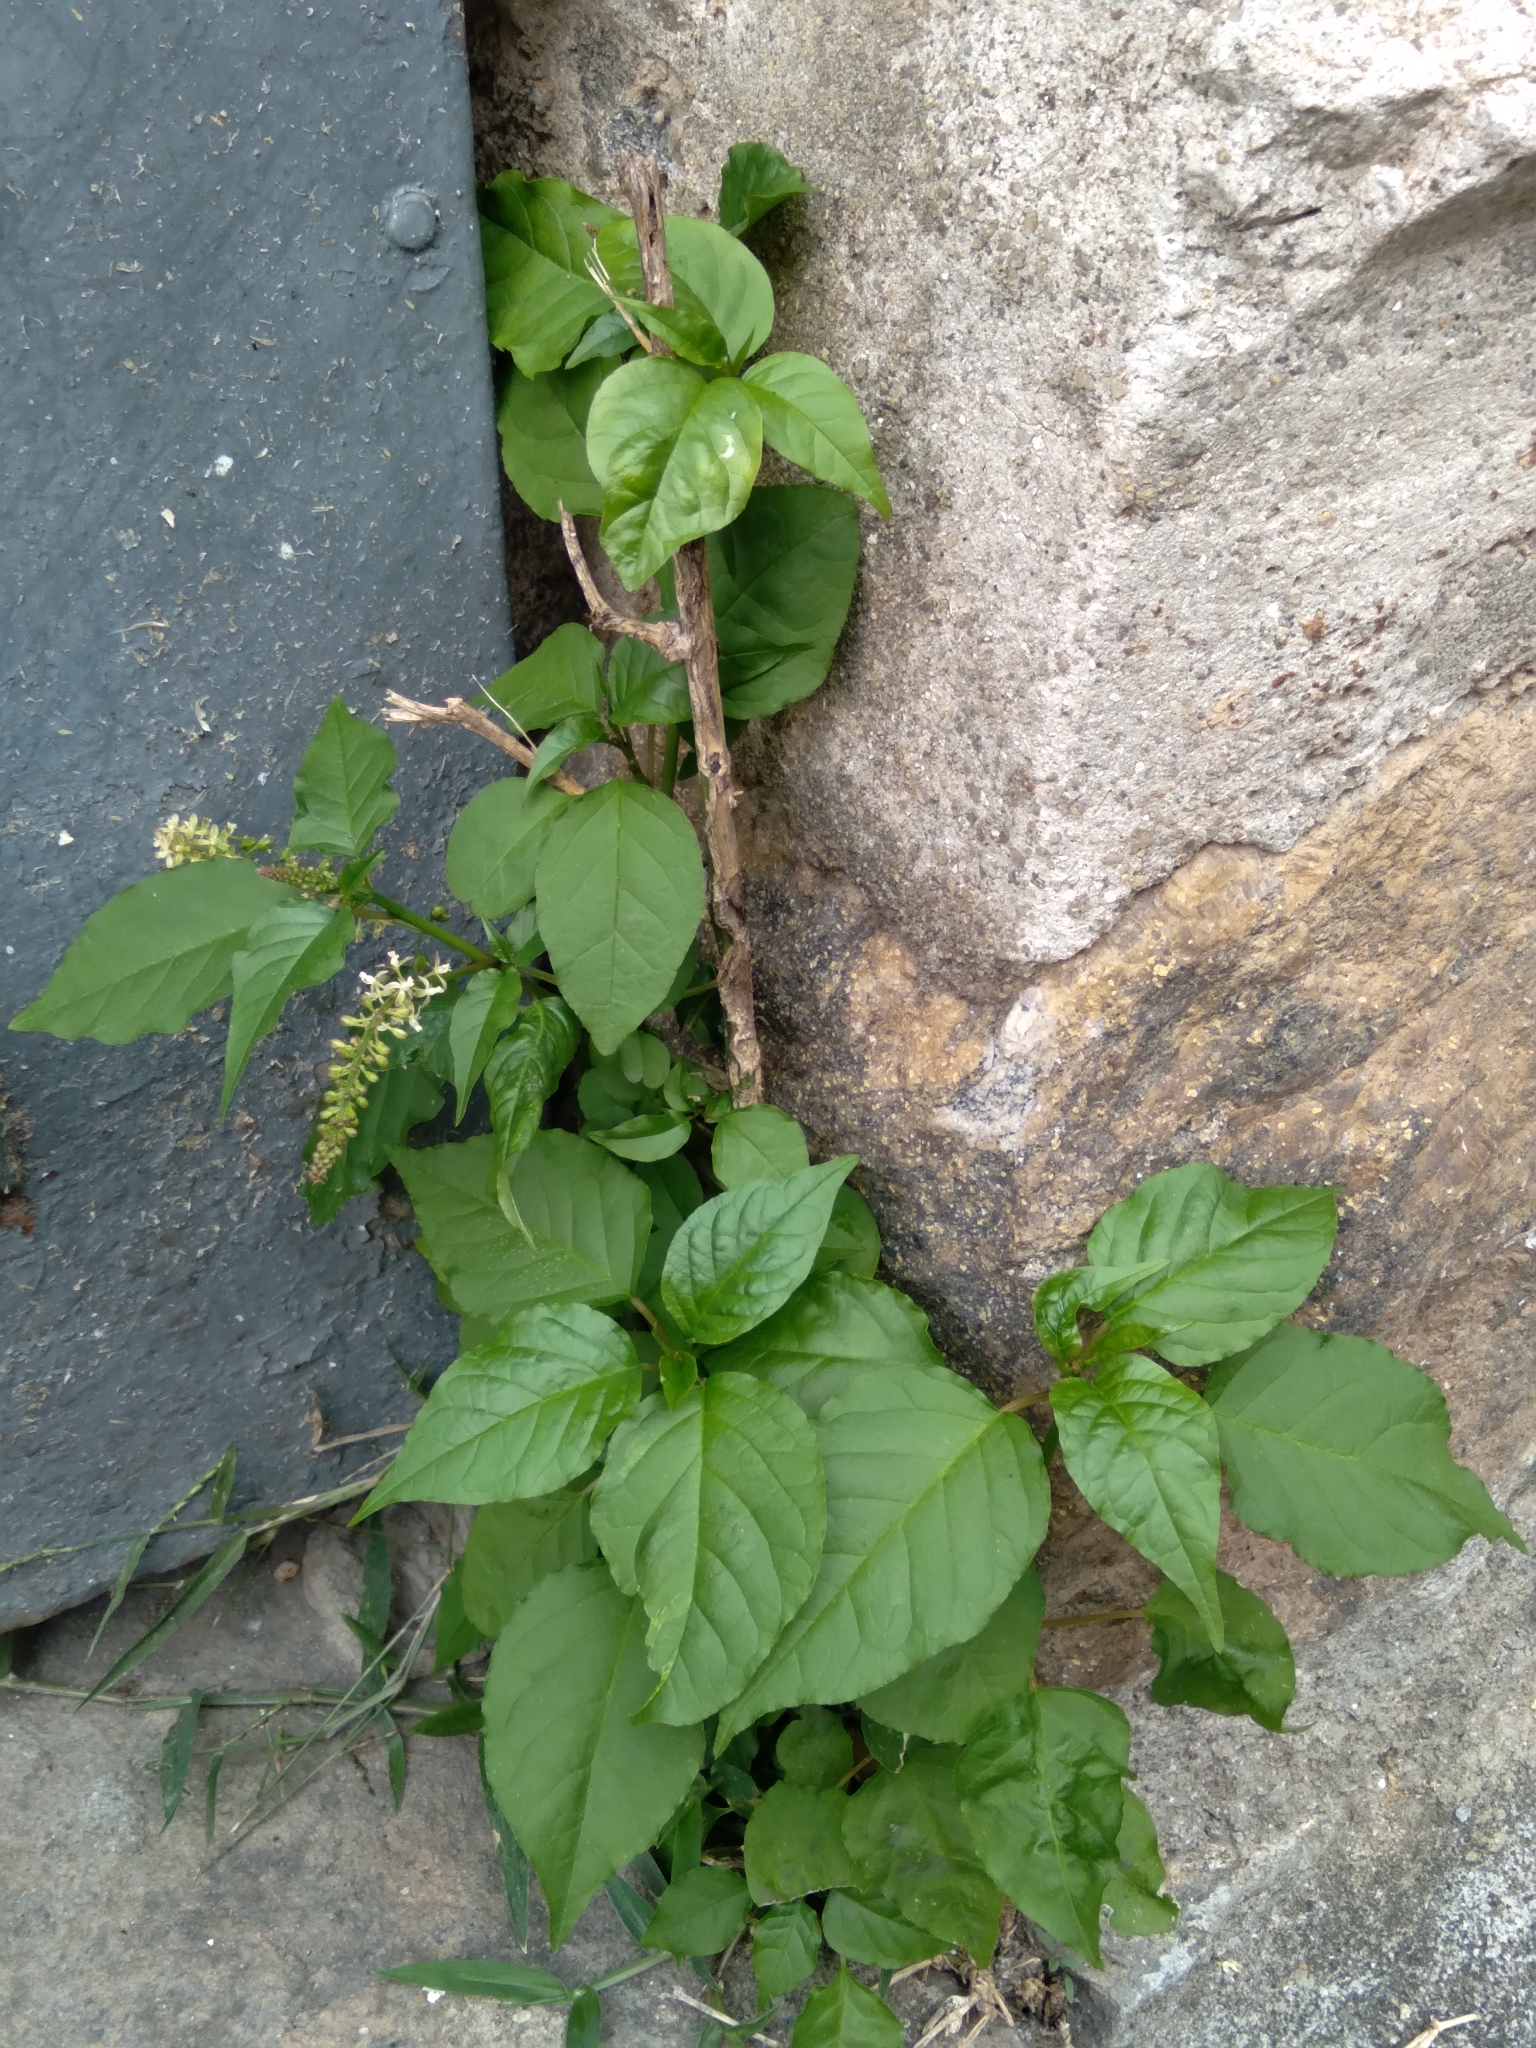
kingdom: Plantae
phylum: Tracheophyta
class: Magnoliopsida
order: Caryophyllales
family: Phytolaccaceae
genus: Rivina
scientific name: Rivina humilis
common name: Rougeplant
